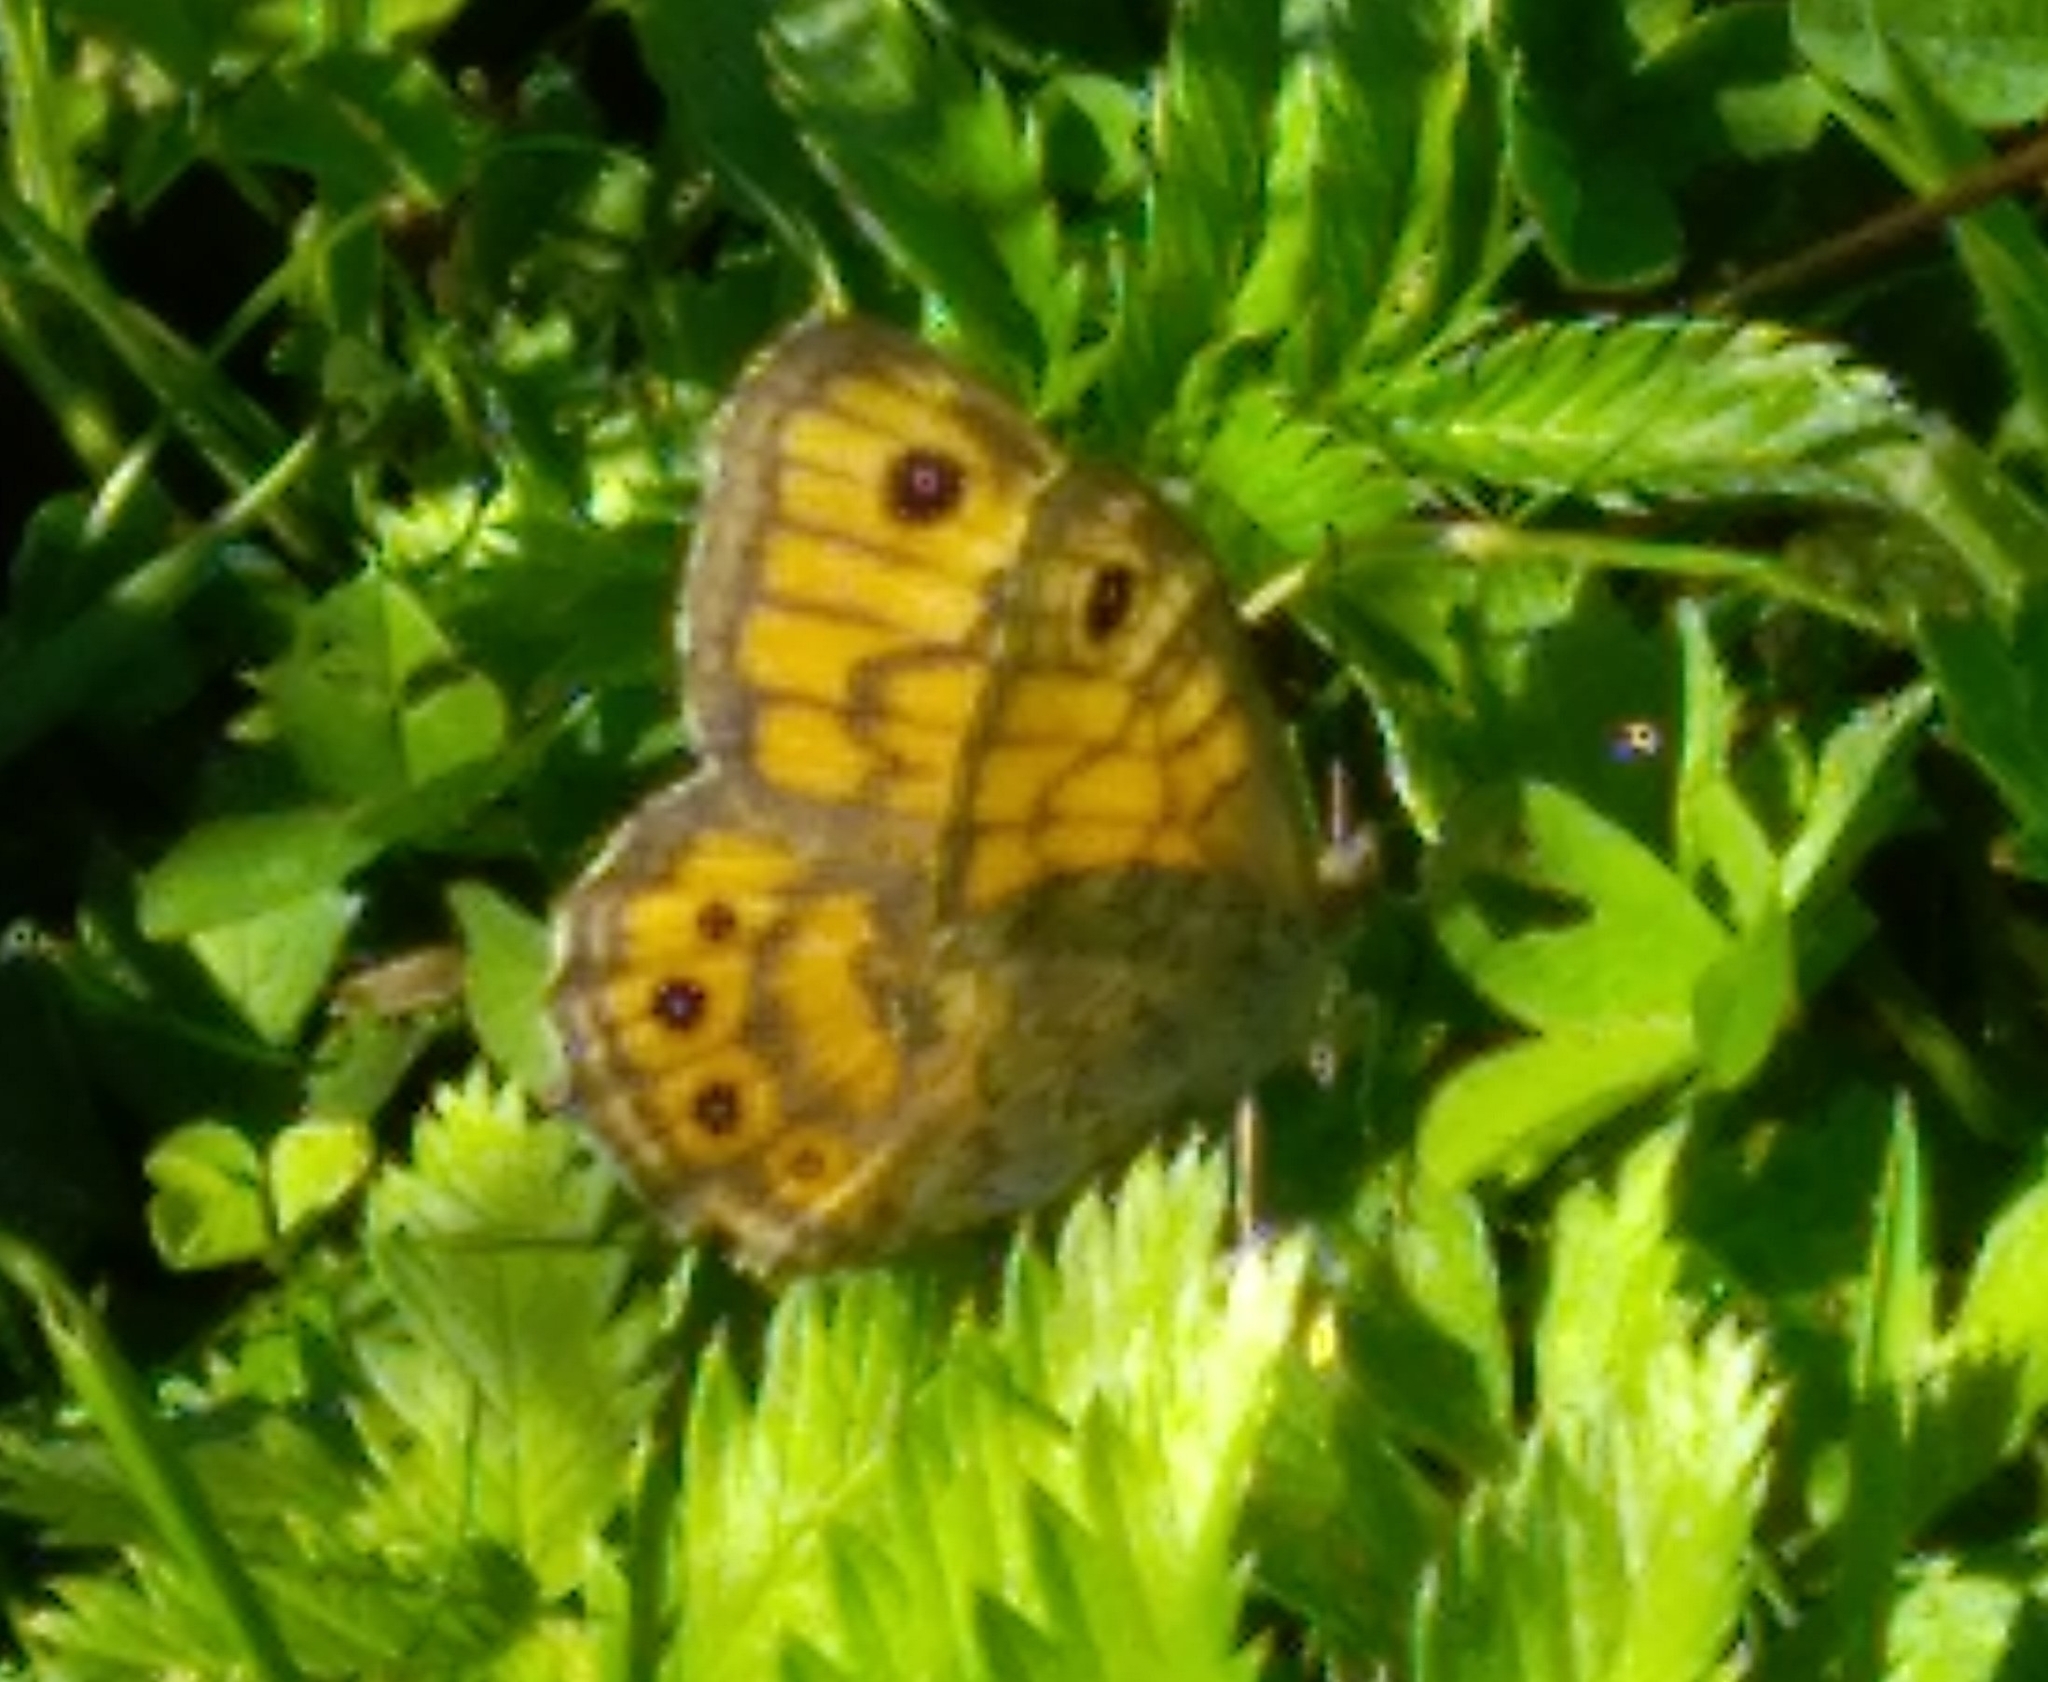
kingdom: Animalia
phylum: Arthropoda
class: Insecta
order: Lepidoptera
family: Nymphalidae
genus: Pararge
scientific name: Pararge Lasiommata megera
